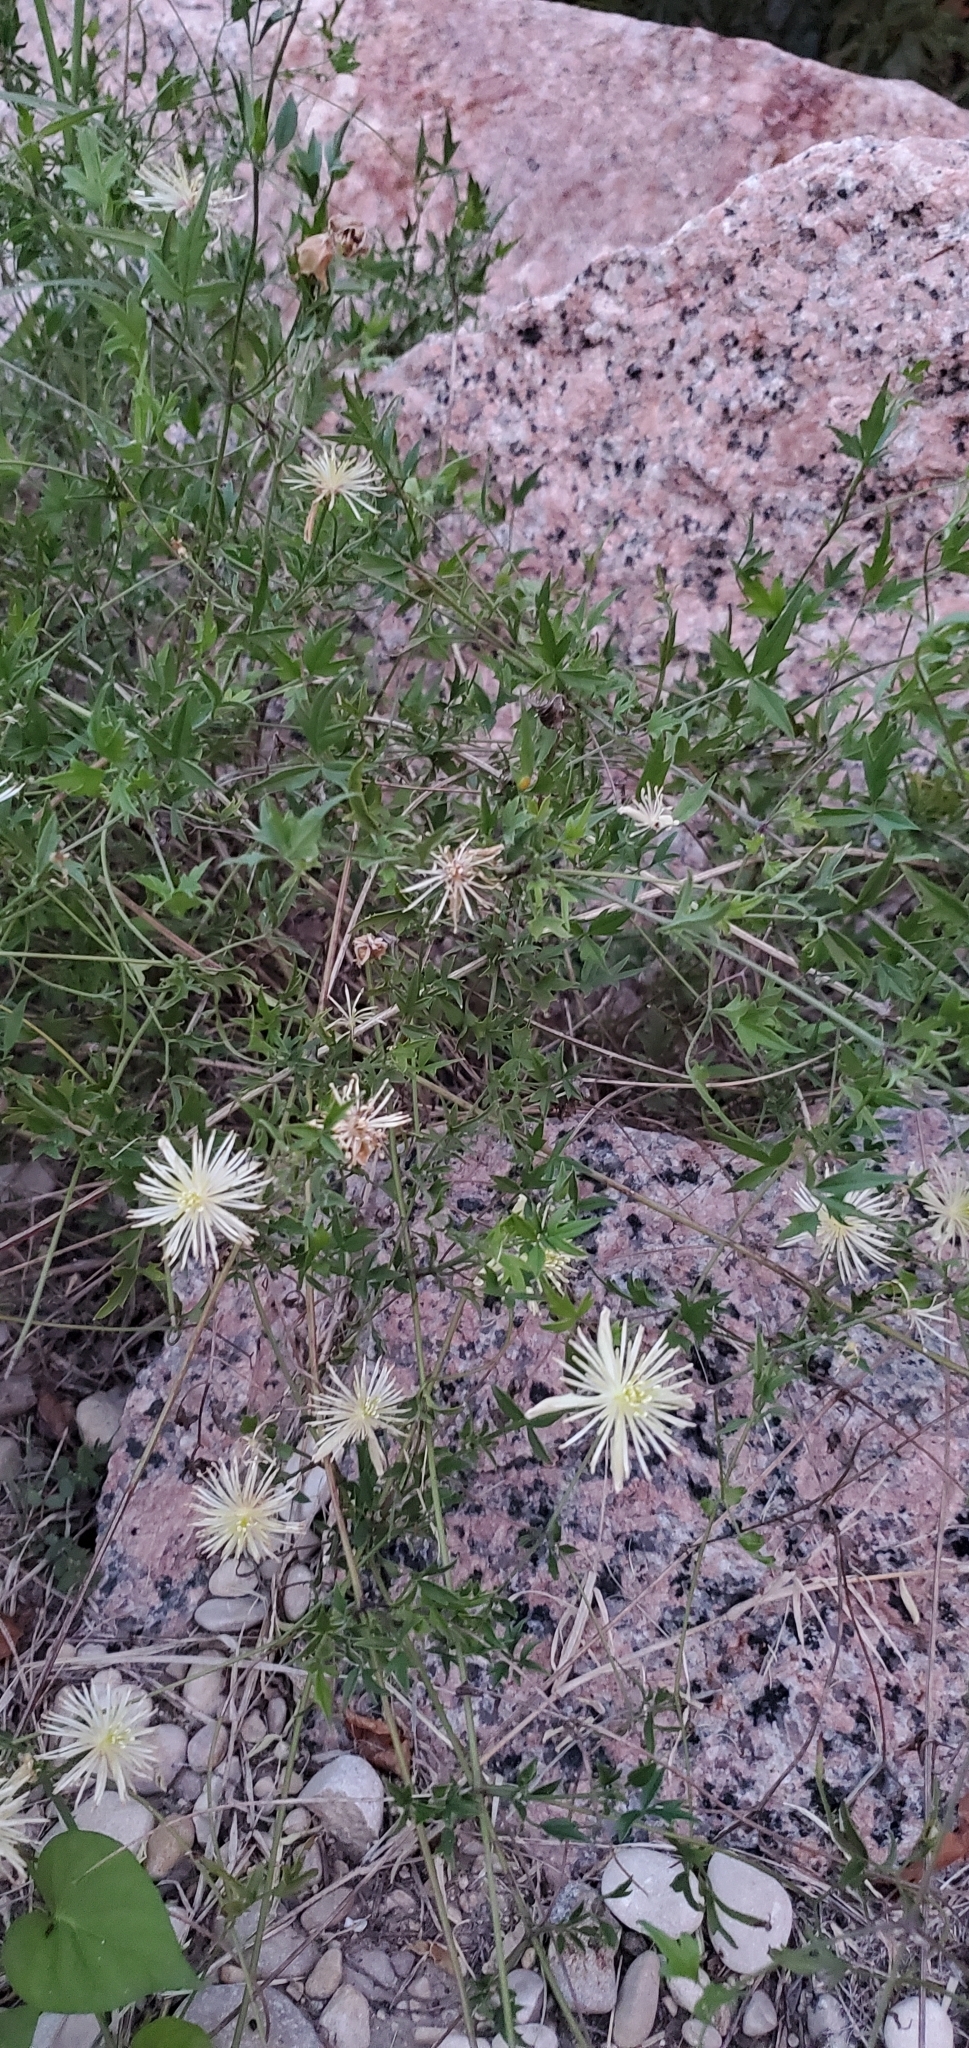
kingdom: Plantae
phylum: Tracheophyta
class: Magnoliopsida
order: Ranunculales
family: Ranunculaceae
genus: Clematis
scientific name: Clematis drummondii
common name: Texas virgin's bower
